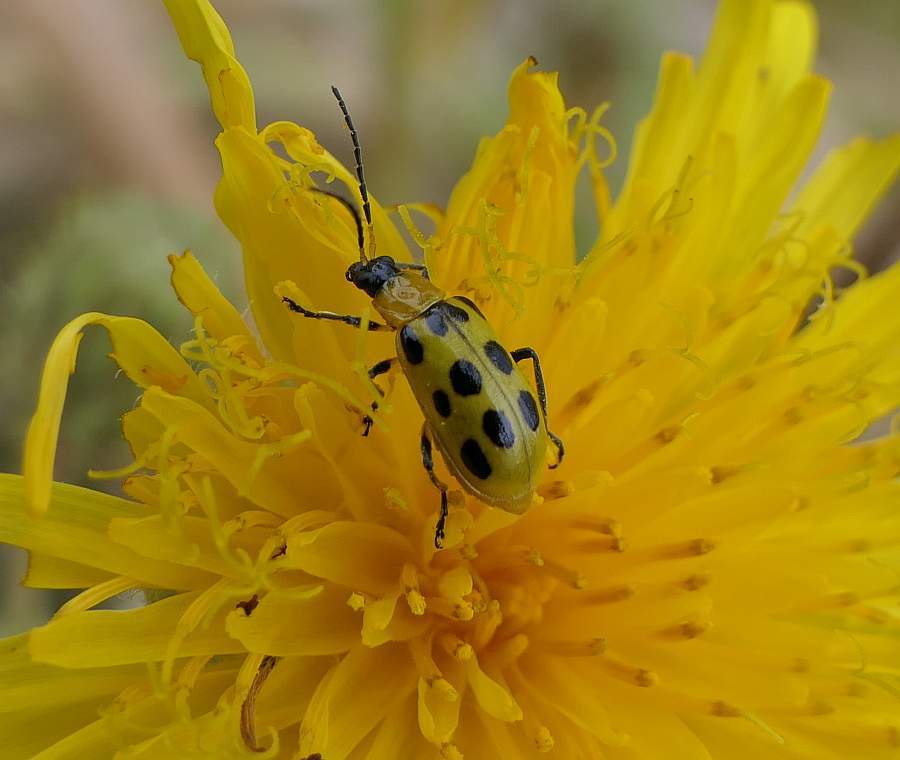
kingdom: Animalia
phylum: Arthropoda
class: Insecta
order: Coleoptera
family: Chrysomelidae
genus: Diabrotica
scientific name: Diabrotica undecimpunctata
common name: Spotted cucumber beetle
